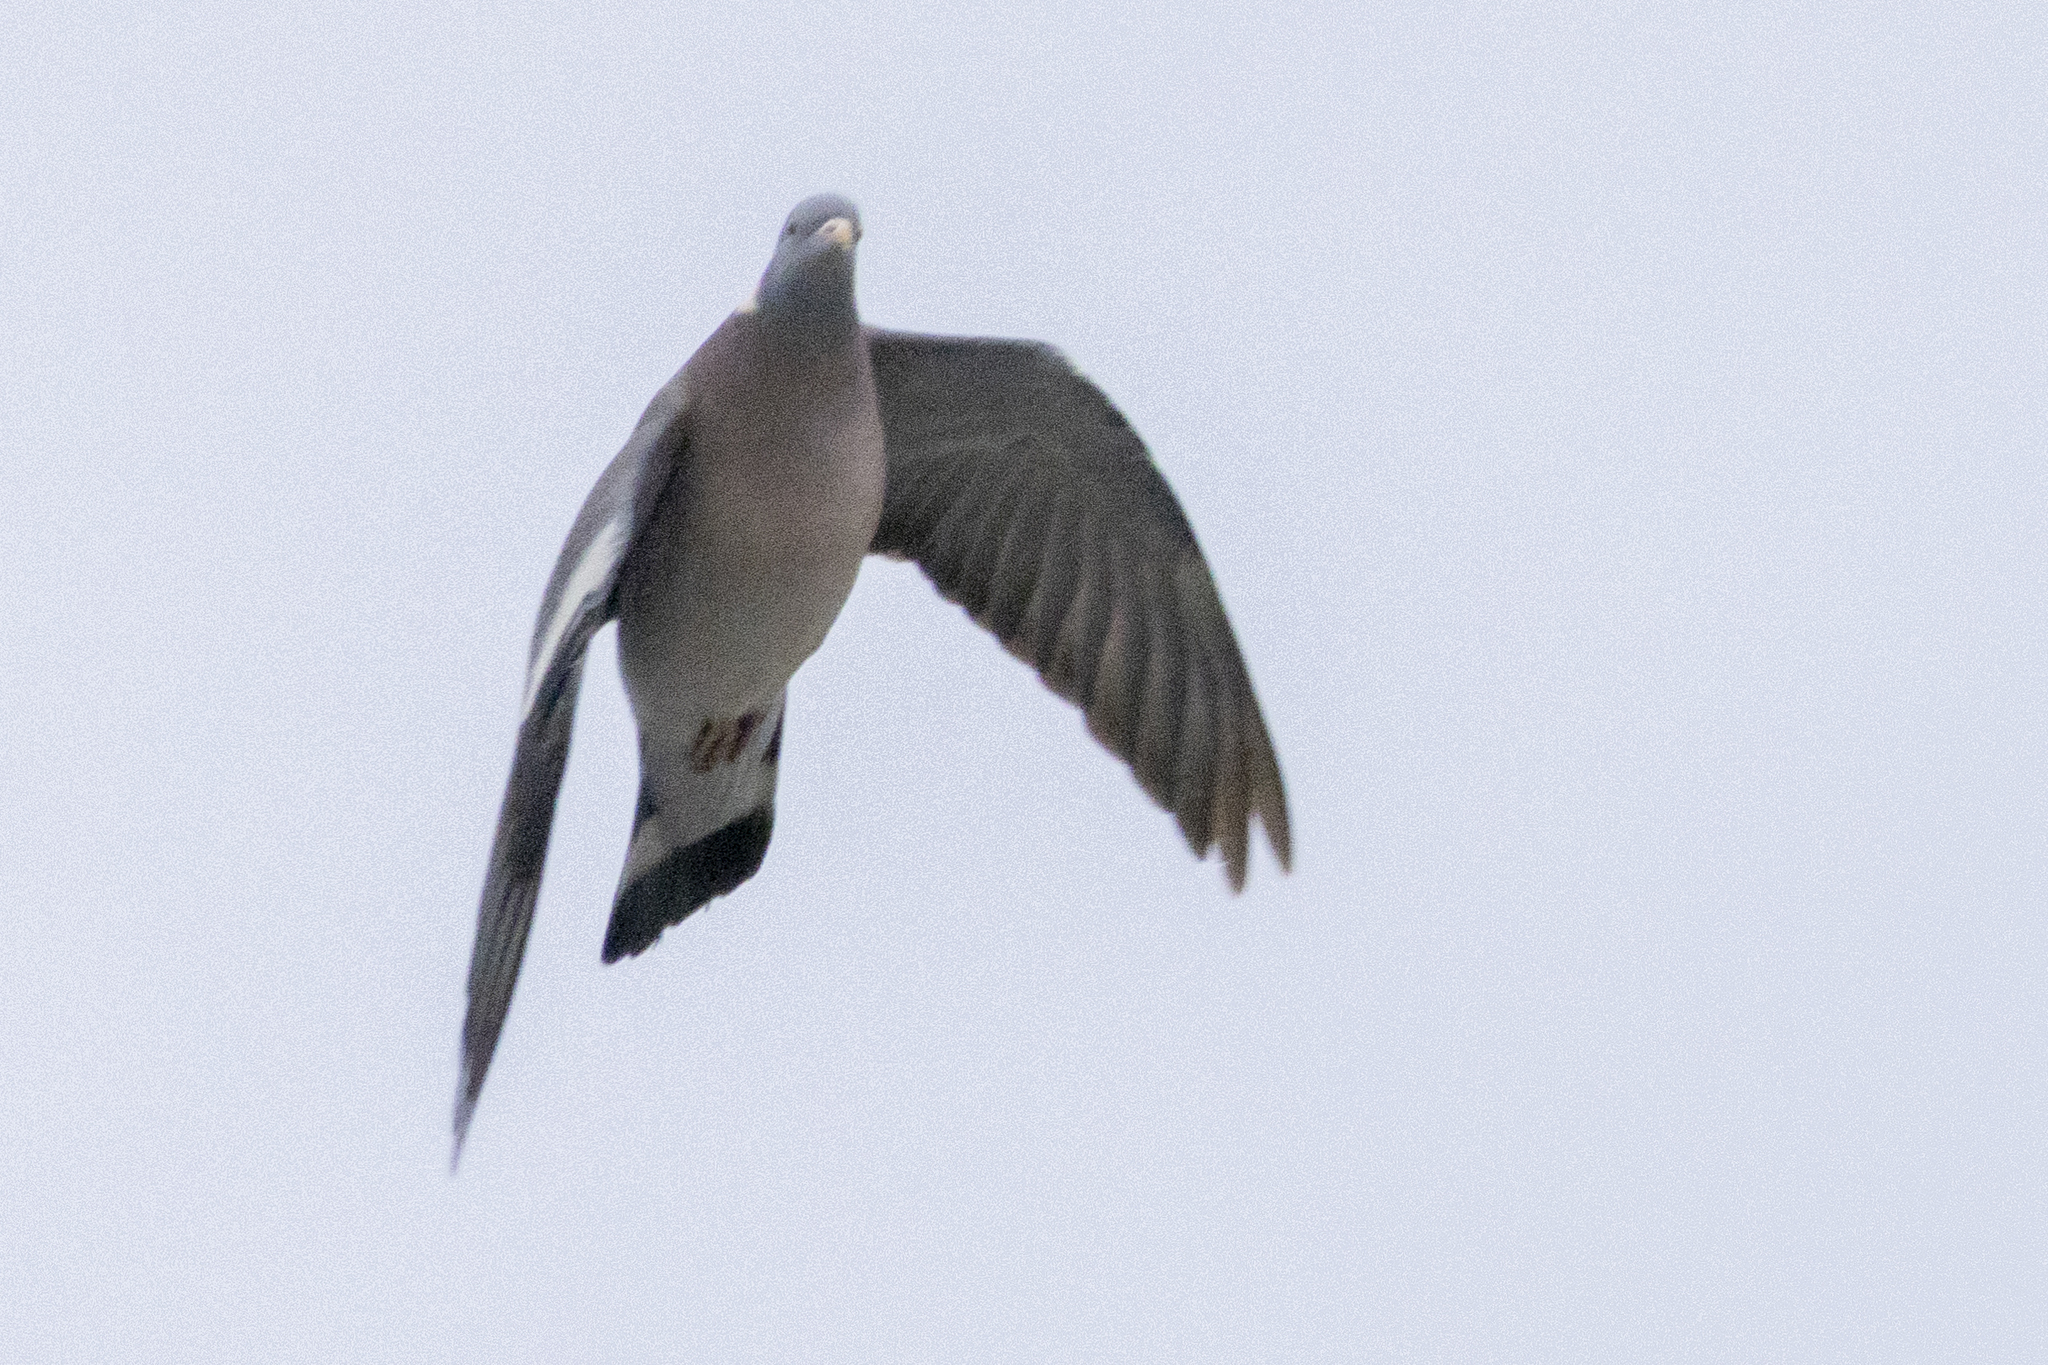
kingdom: Animalia
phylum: Chordata
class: Aves
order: Columbiformes
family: Columbidae
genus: Columba
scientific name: Columba palumbus
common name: Common wood pigeon
